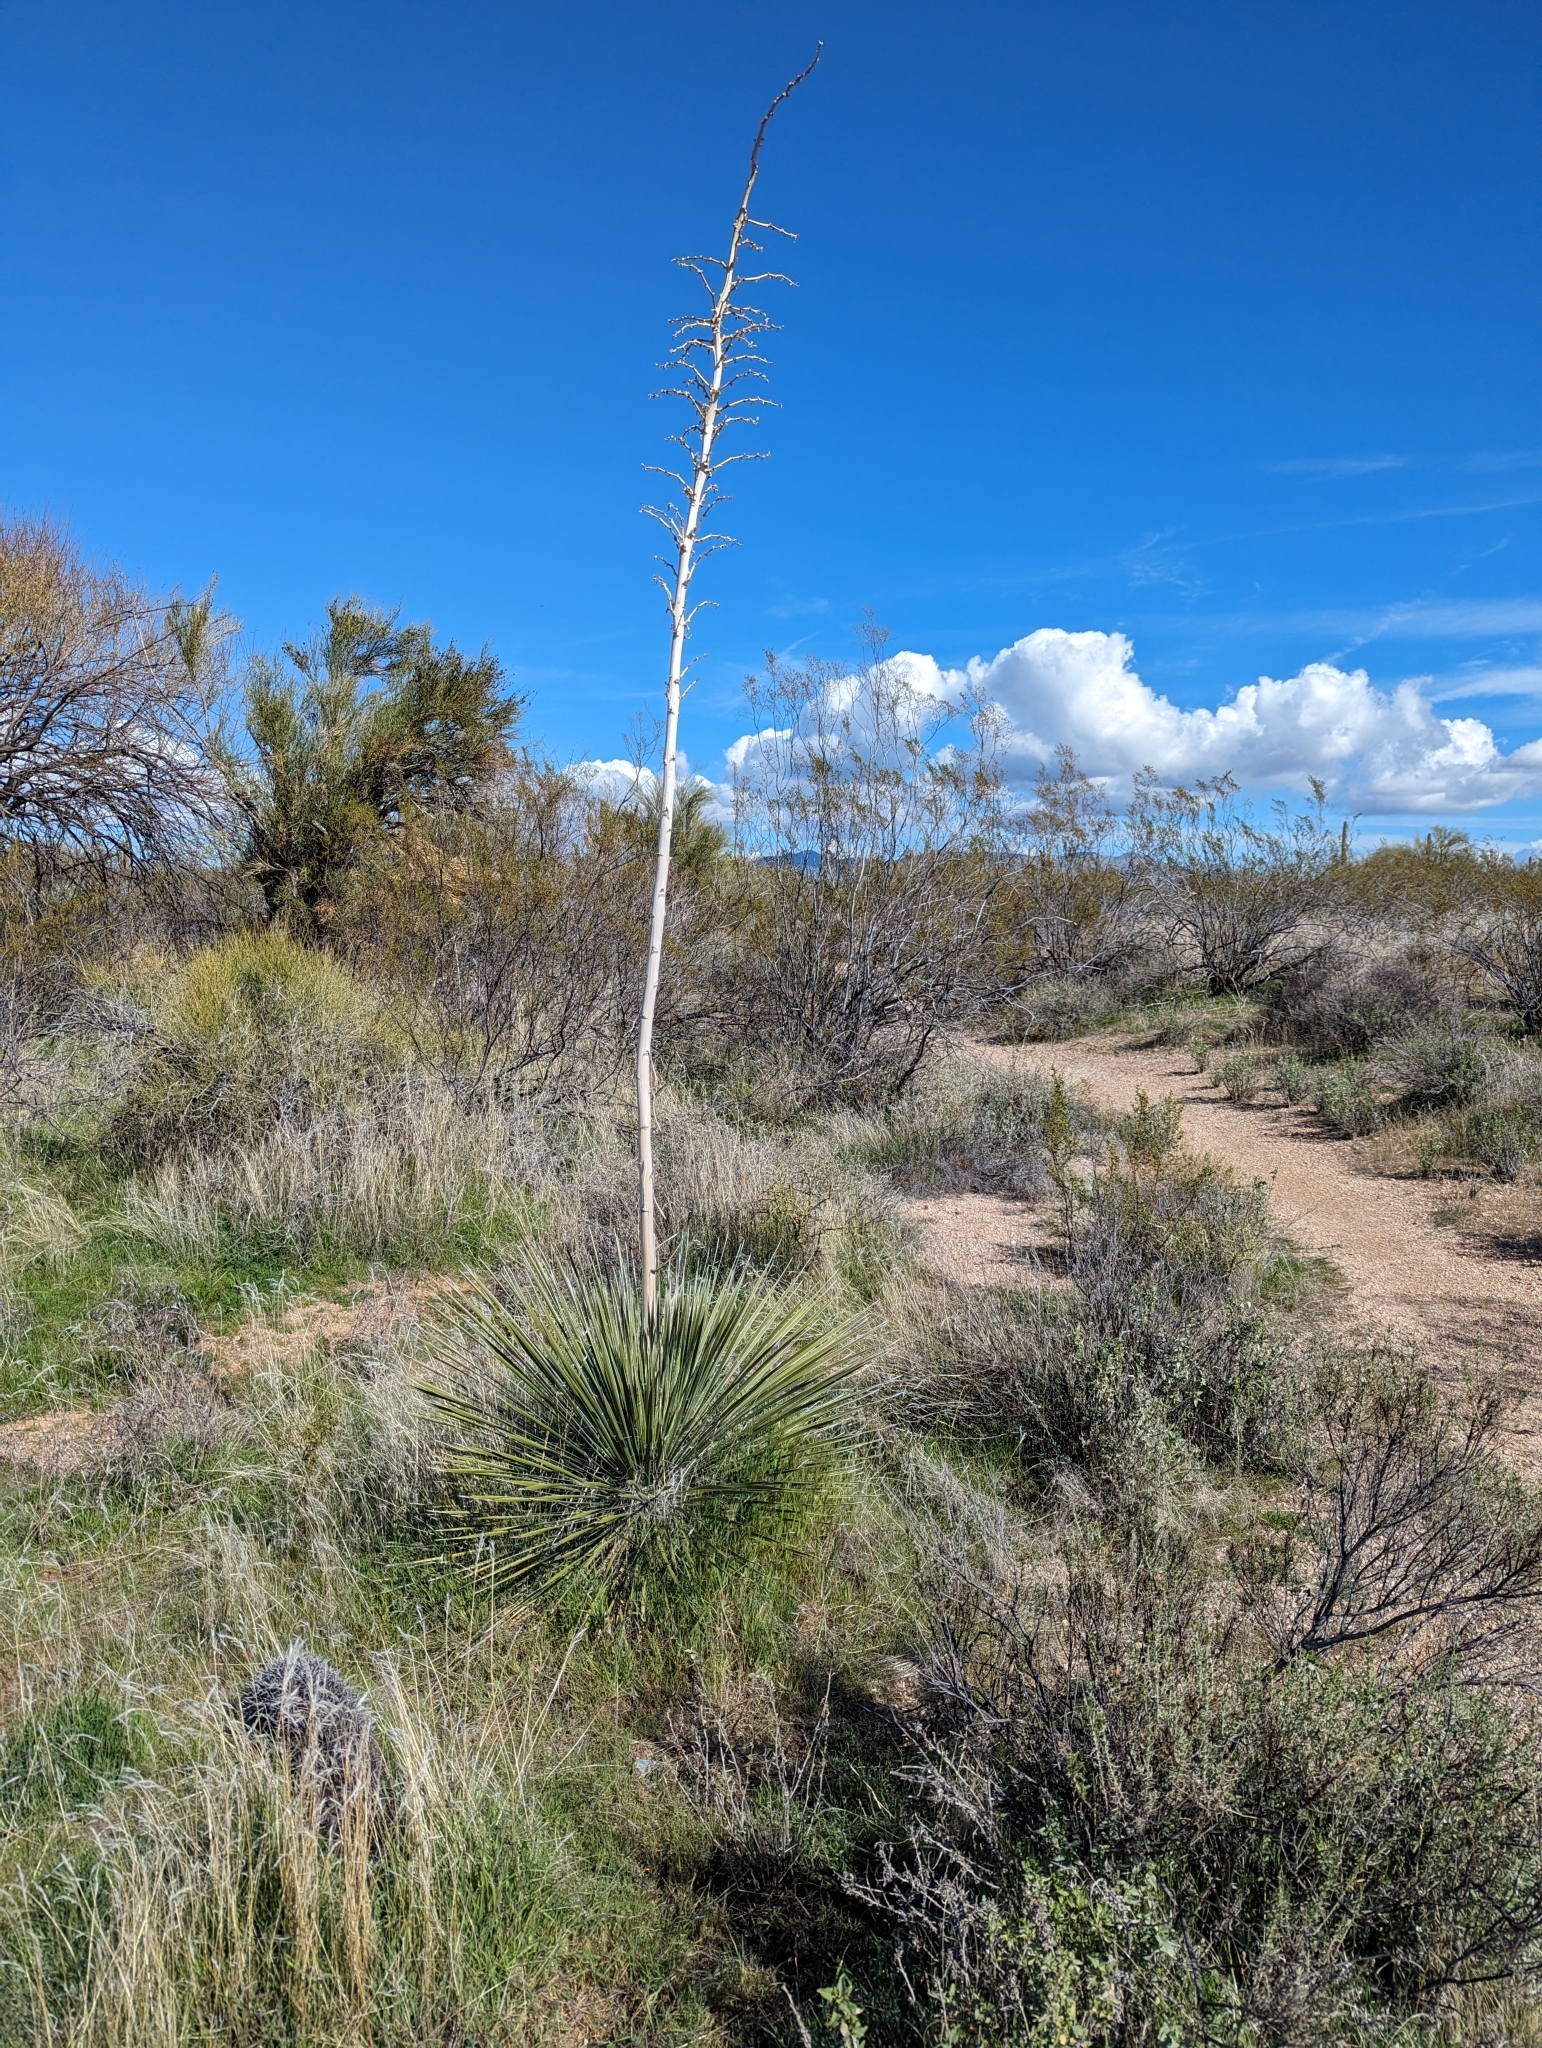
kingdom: Plantae
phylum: Tracheophyta
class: Liliopsida
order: Asparagales
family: Asparagaceae
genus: Yucca
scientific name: Yucca elata
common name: Palmella
